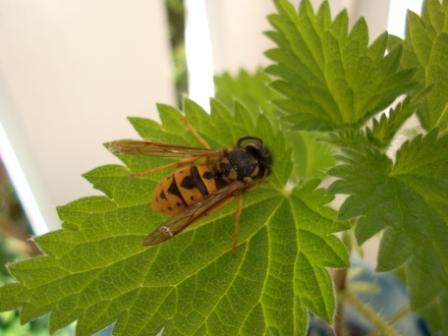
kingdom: Animalia
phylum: Arthropoda
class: Insecta
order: Hymenoptera
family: Vespidae
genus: Vespula
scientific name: Vespula germanica
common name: German wasp
